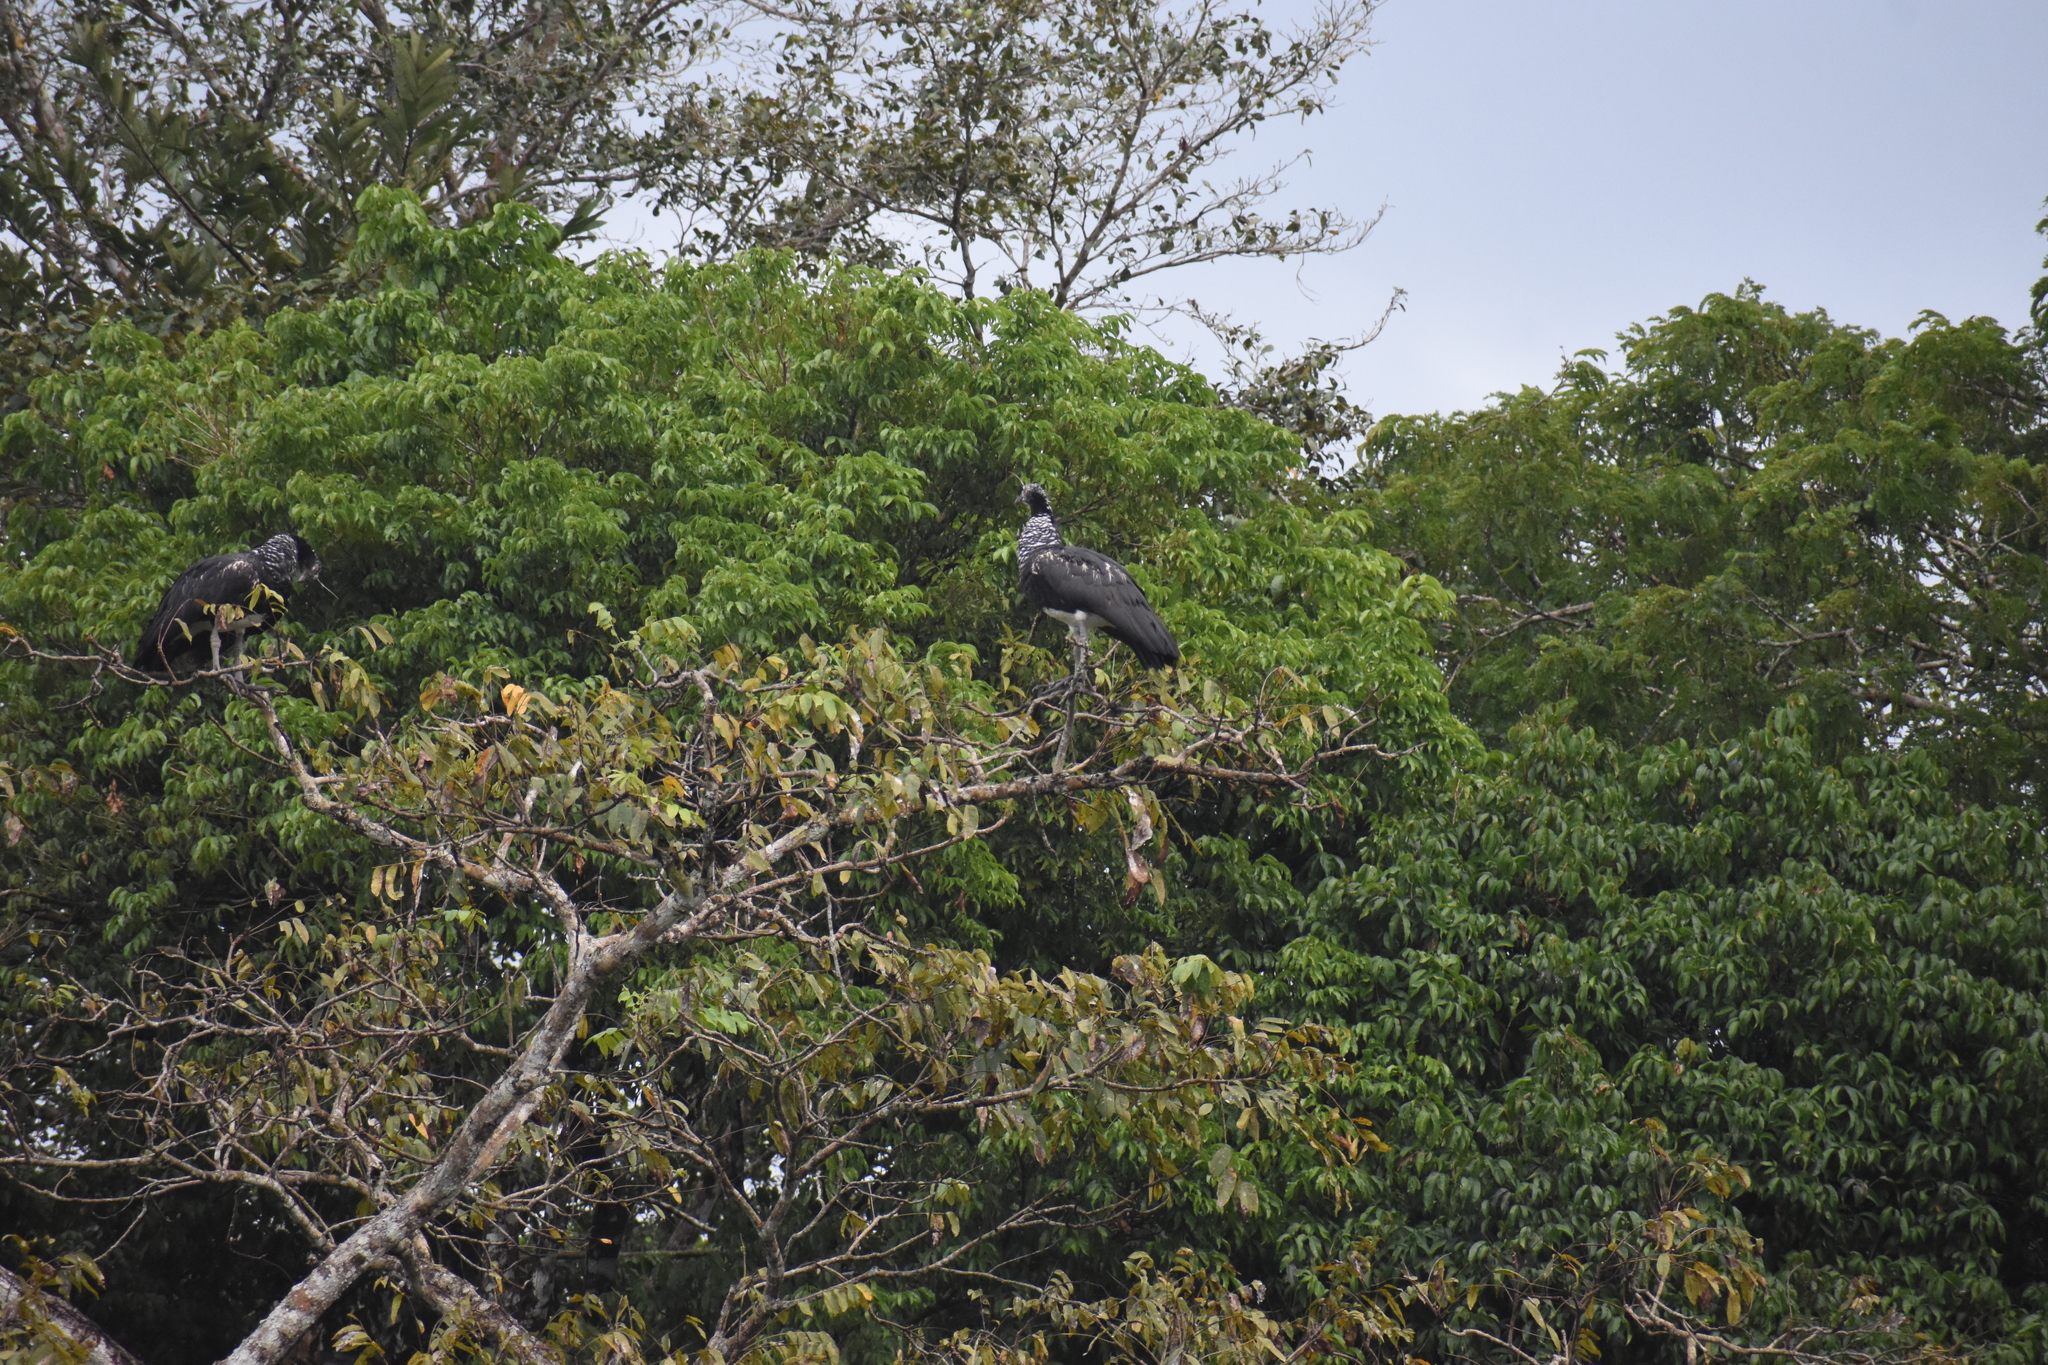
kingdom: Animalia
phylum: Chordata
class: Aves
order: Anseriformes
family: Anhimidae
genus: Anhima
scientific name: Anhima cornuta
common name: Horned screamer
